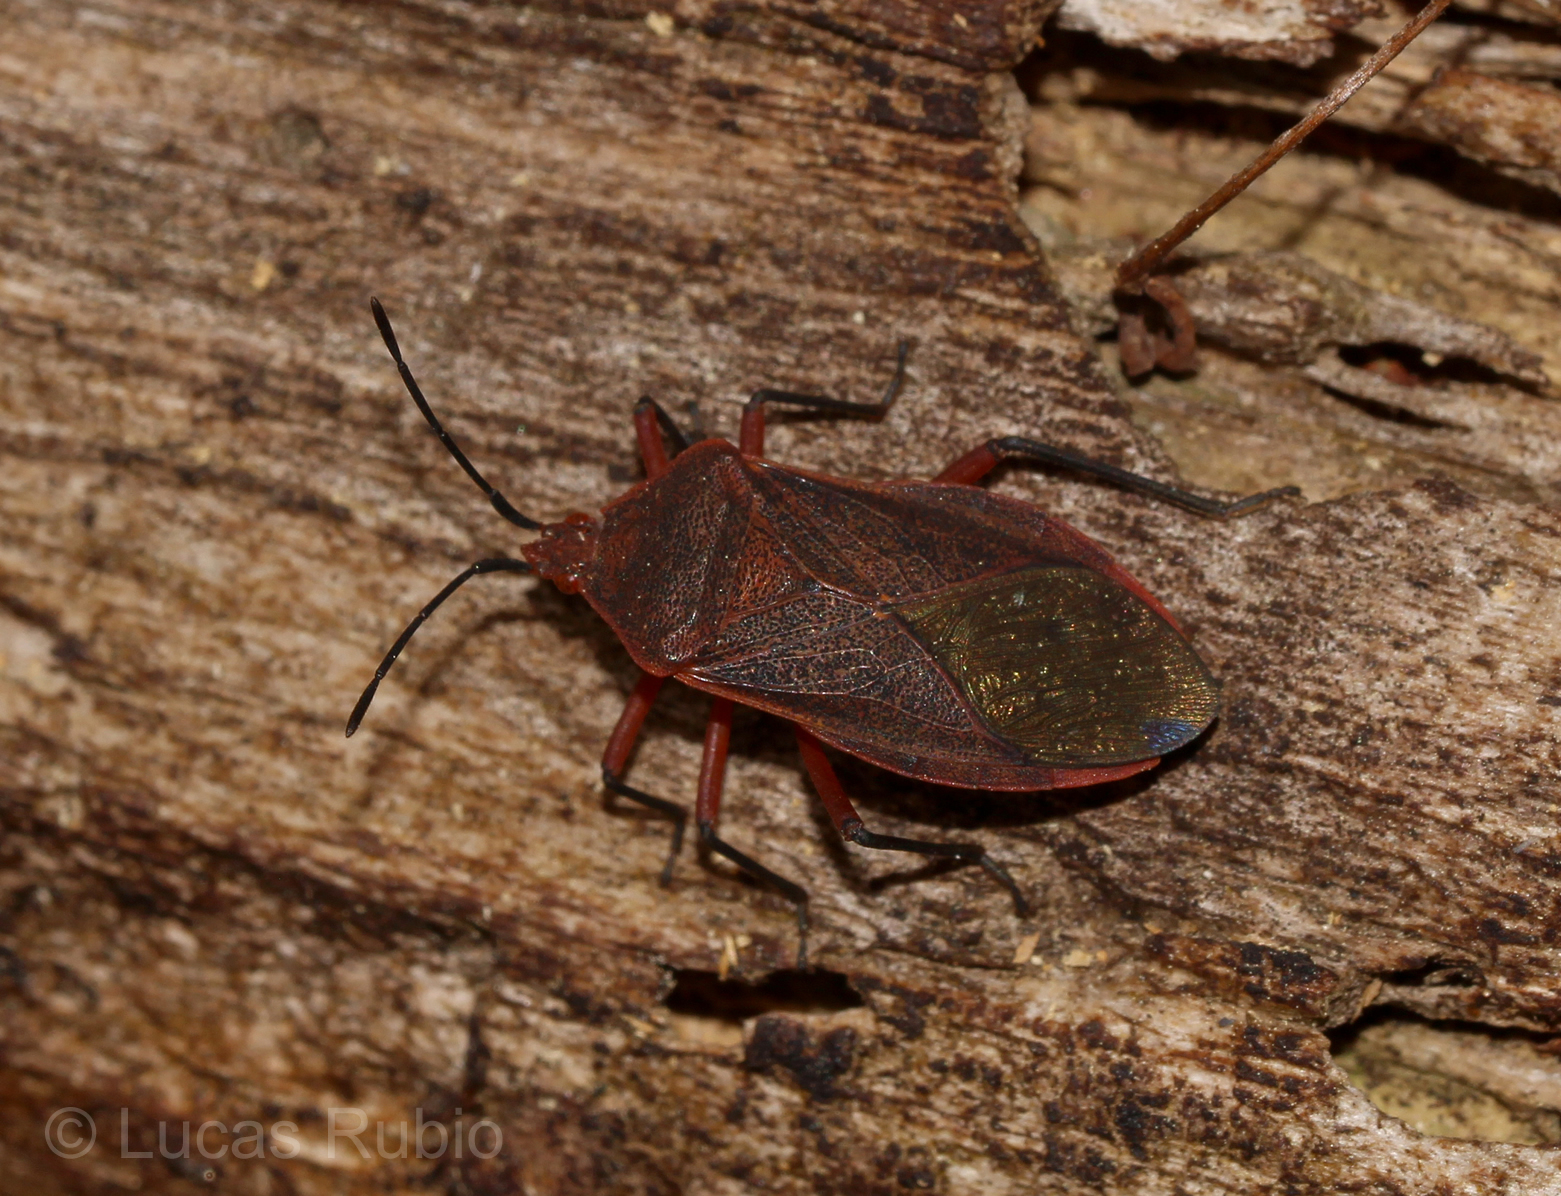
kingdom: Animalia
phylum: Arthropoda
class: Insecta
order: Hemiptera
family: Coreidae
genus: Acidomeria
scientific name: Acidomeria sordida
